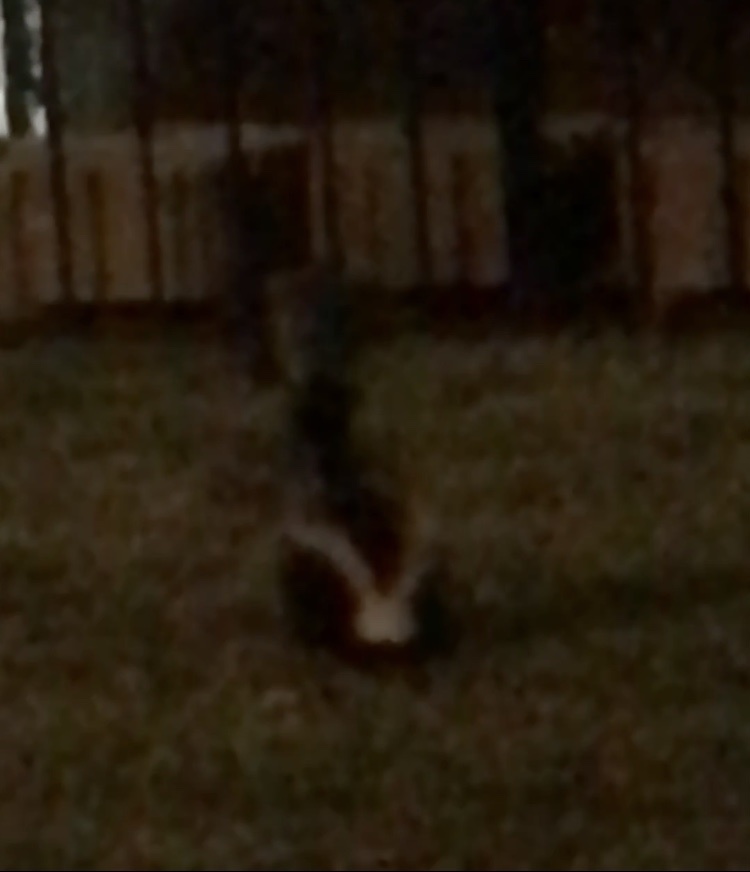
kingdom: Animalia
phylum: Chordata
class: Mammalia
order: Carnivora
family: Mephitidae
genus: Mephitis
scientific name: Mephitis mephitis
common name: Striped skunk
